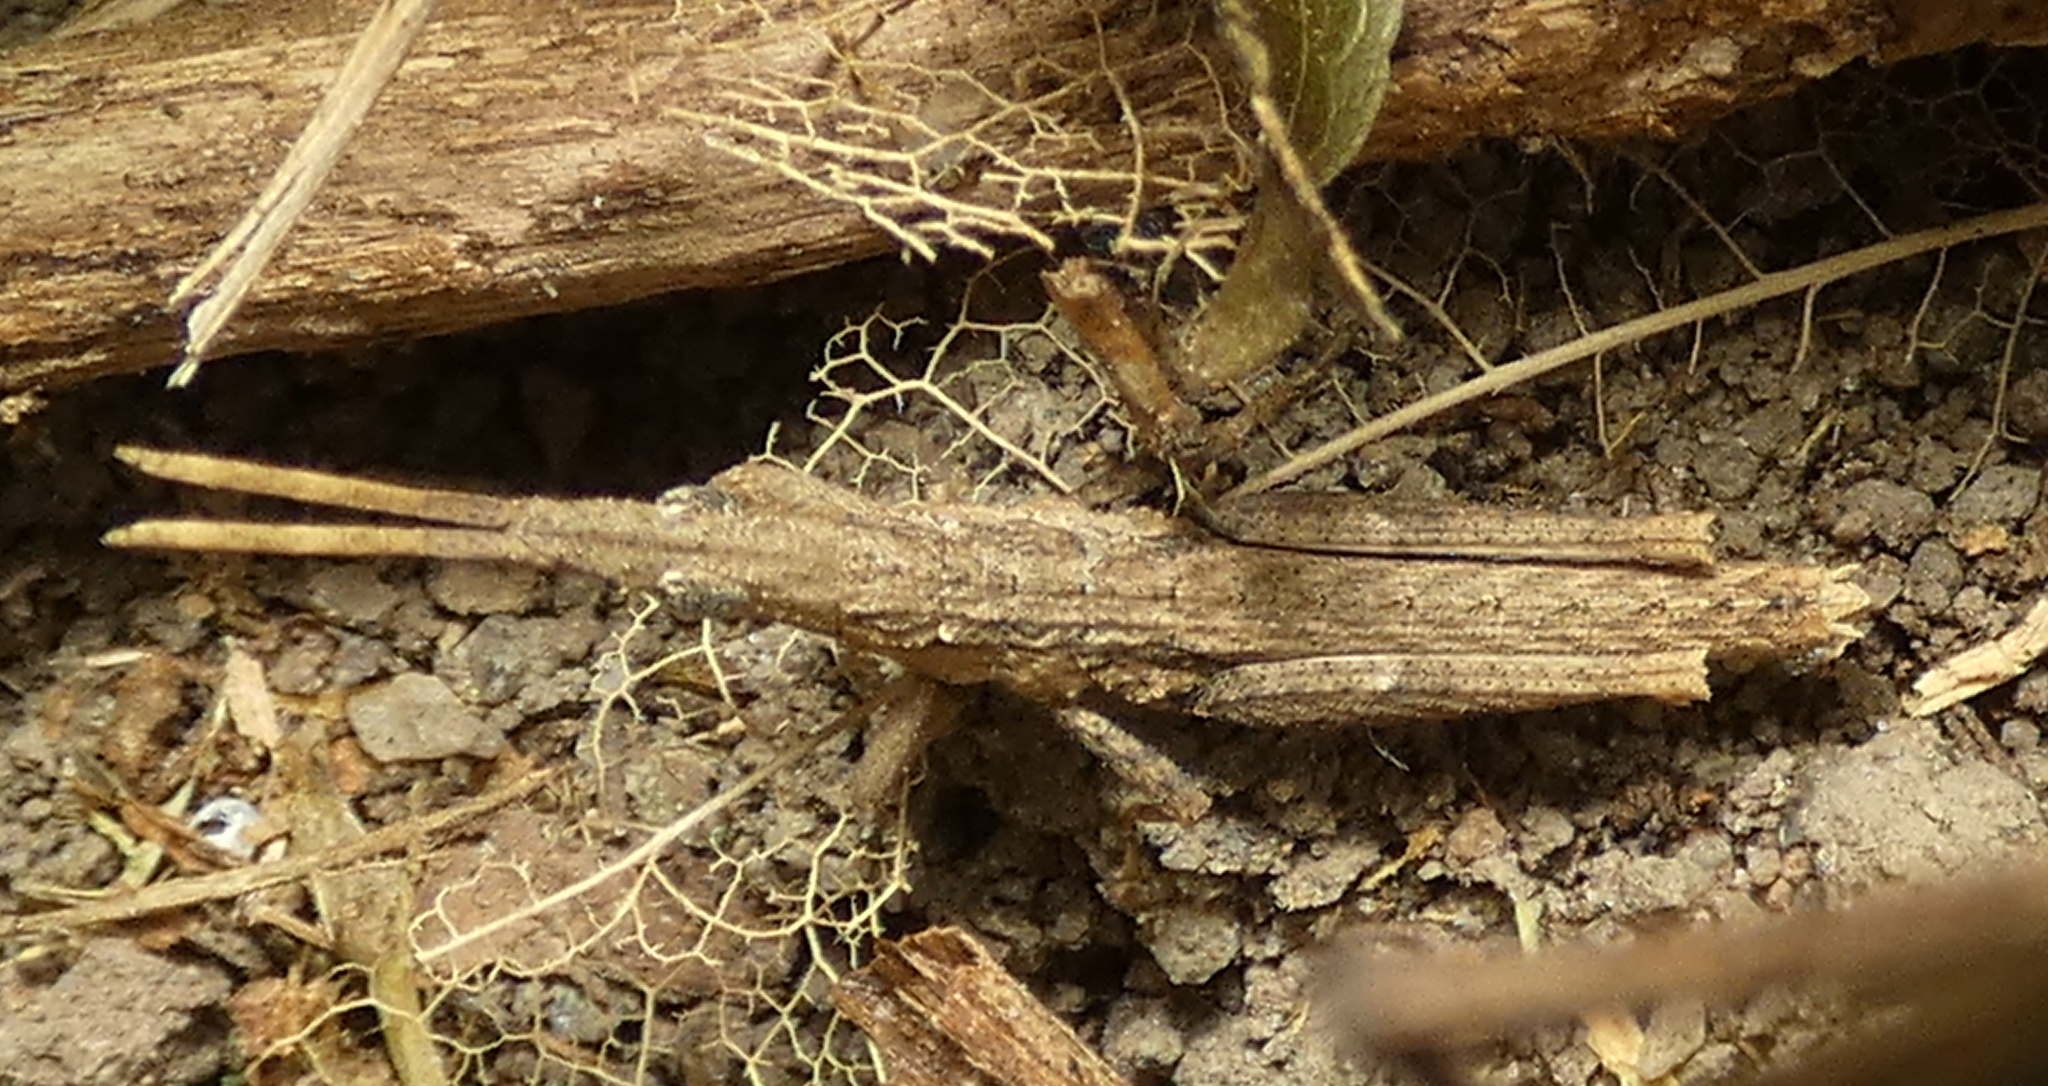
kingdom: Animalia
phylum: Arthropoda
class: Insecta
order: Orthoptera
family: Pyrgomorphidae
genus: Algete
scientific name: Algete brunneri
